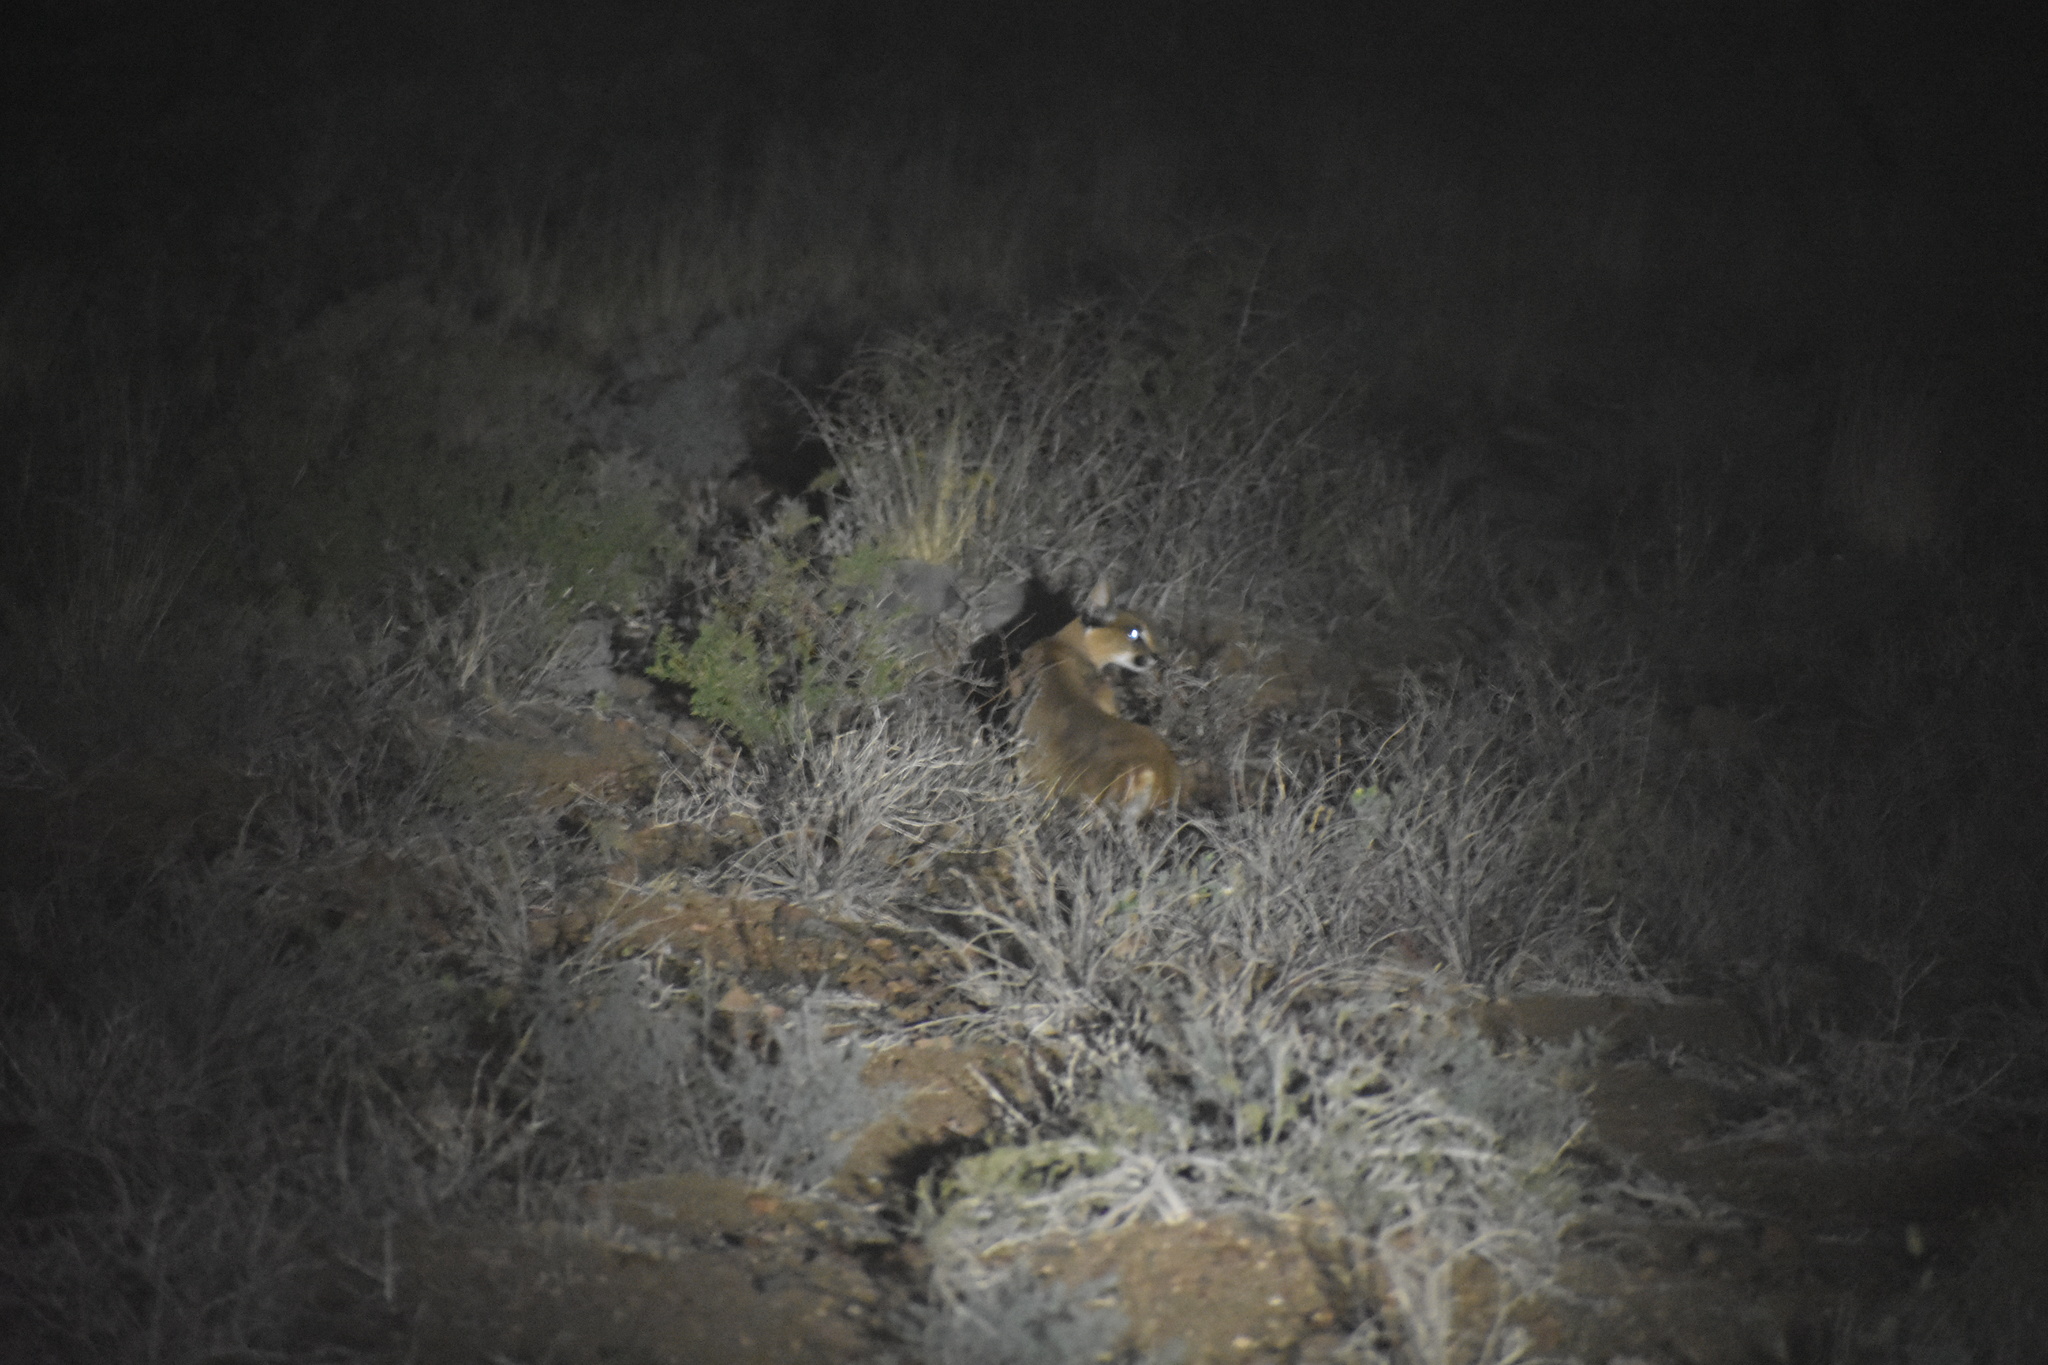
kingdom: Animalia
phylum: Chordata
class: Mammalia
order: Carnivora
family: Felidae
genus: Caracal
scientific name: Caracal caracal
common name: Caracal
